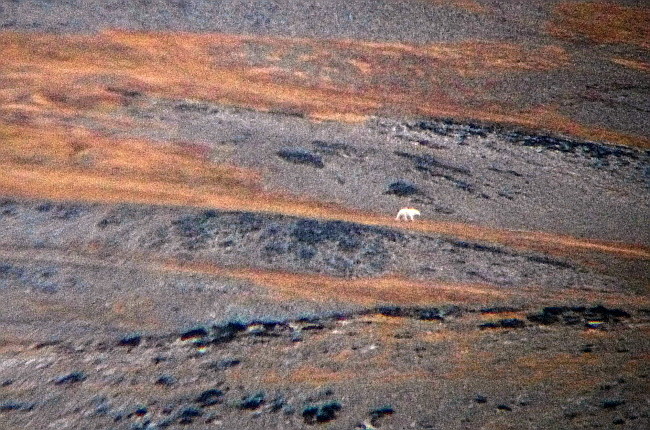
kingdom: Animalia
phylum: Chordata
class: Mammalia
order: Carnivora
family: Ursidae
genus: Ursus
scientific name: Ursus maritimus
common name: Polar bear
